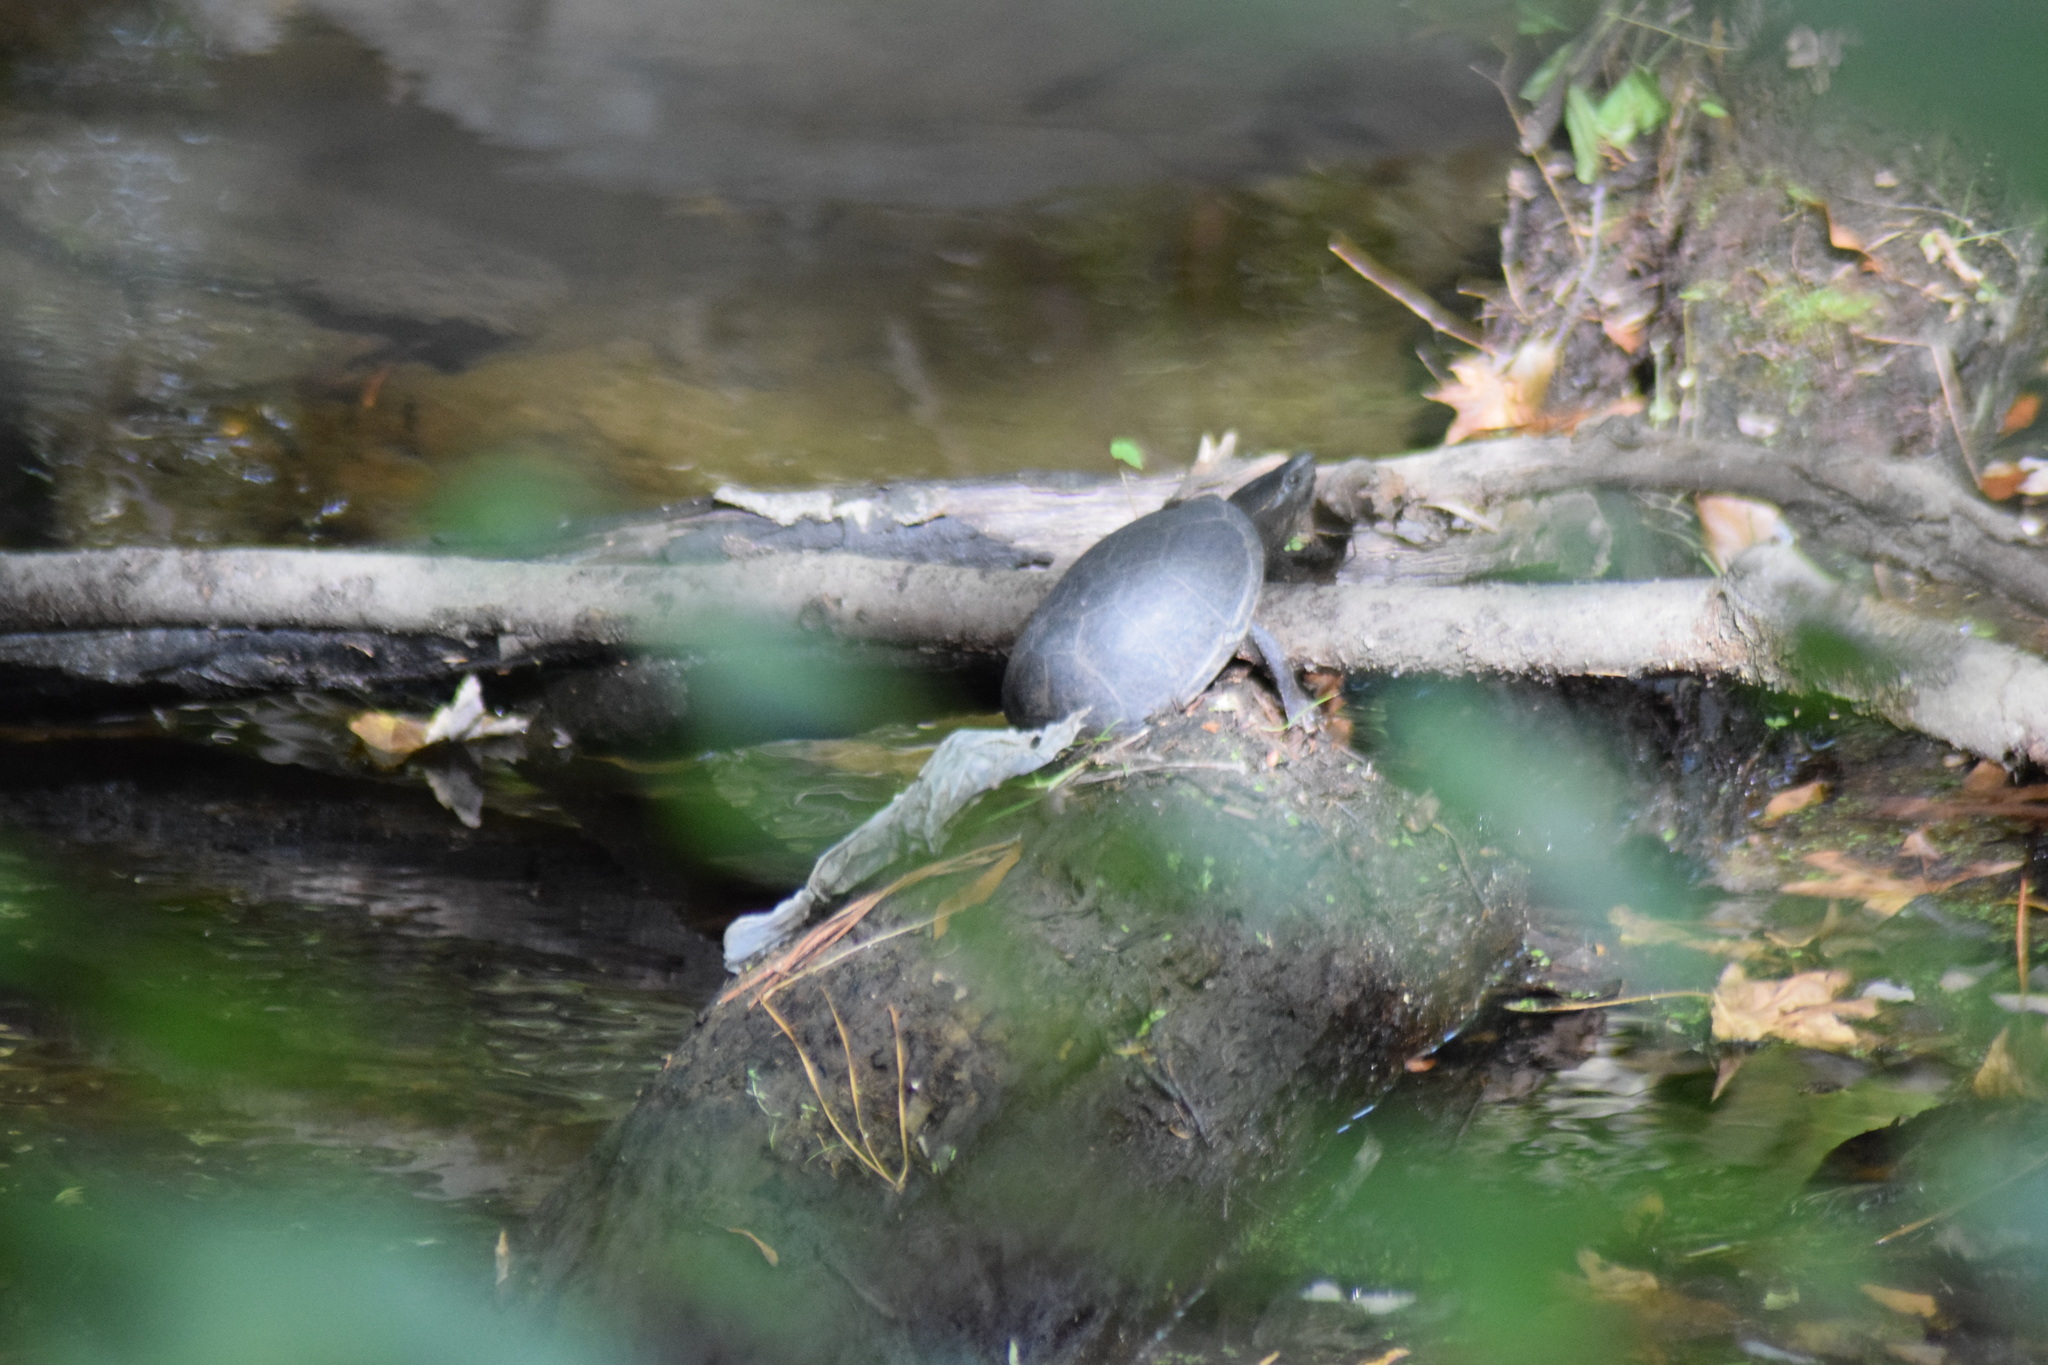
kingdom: Animalia
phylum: Chordata
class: Testudines
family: Kinosternidae
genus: Sternotherus
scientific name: Sternotherus odoratus
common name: Common musk turtle
